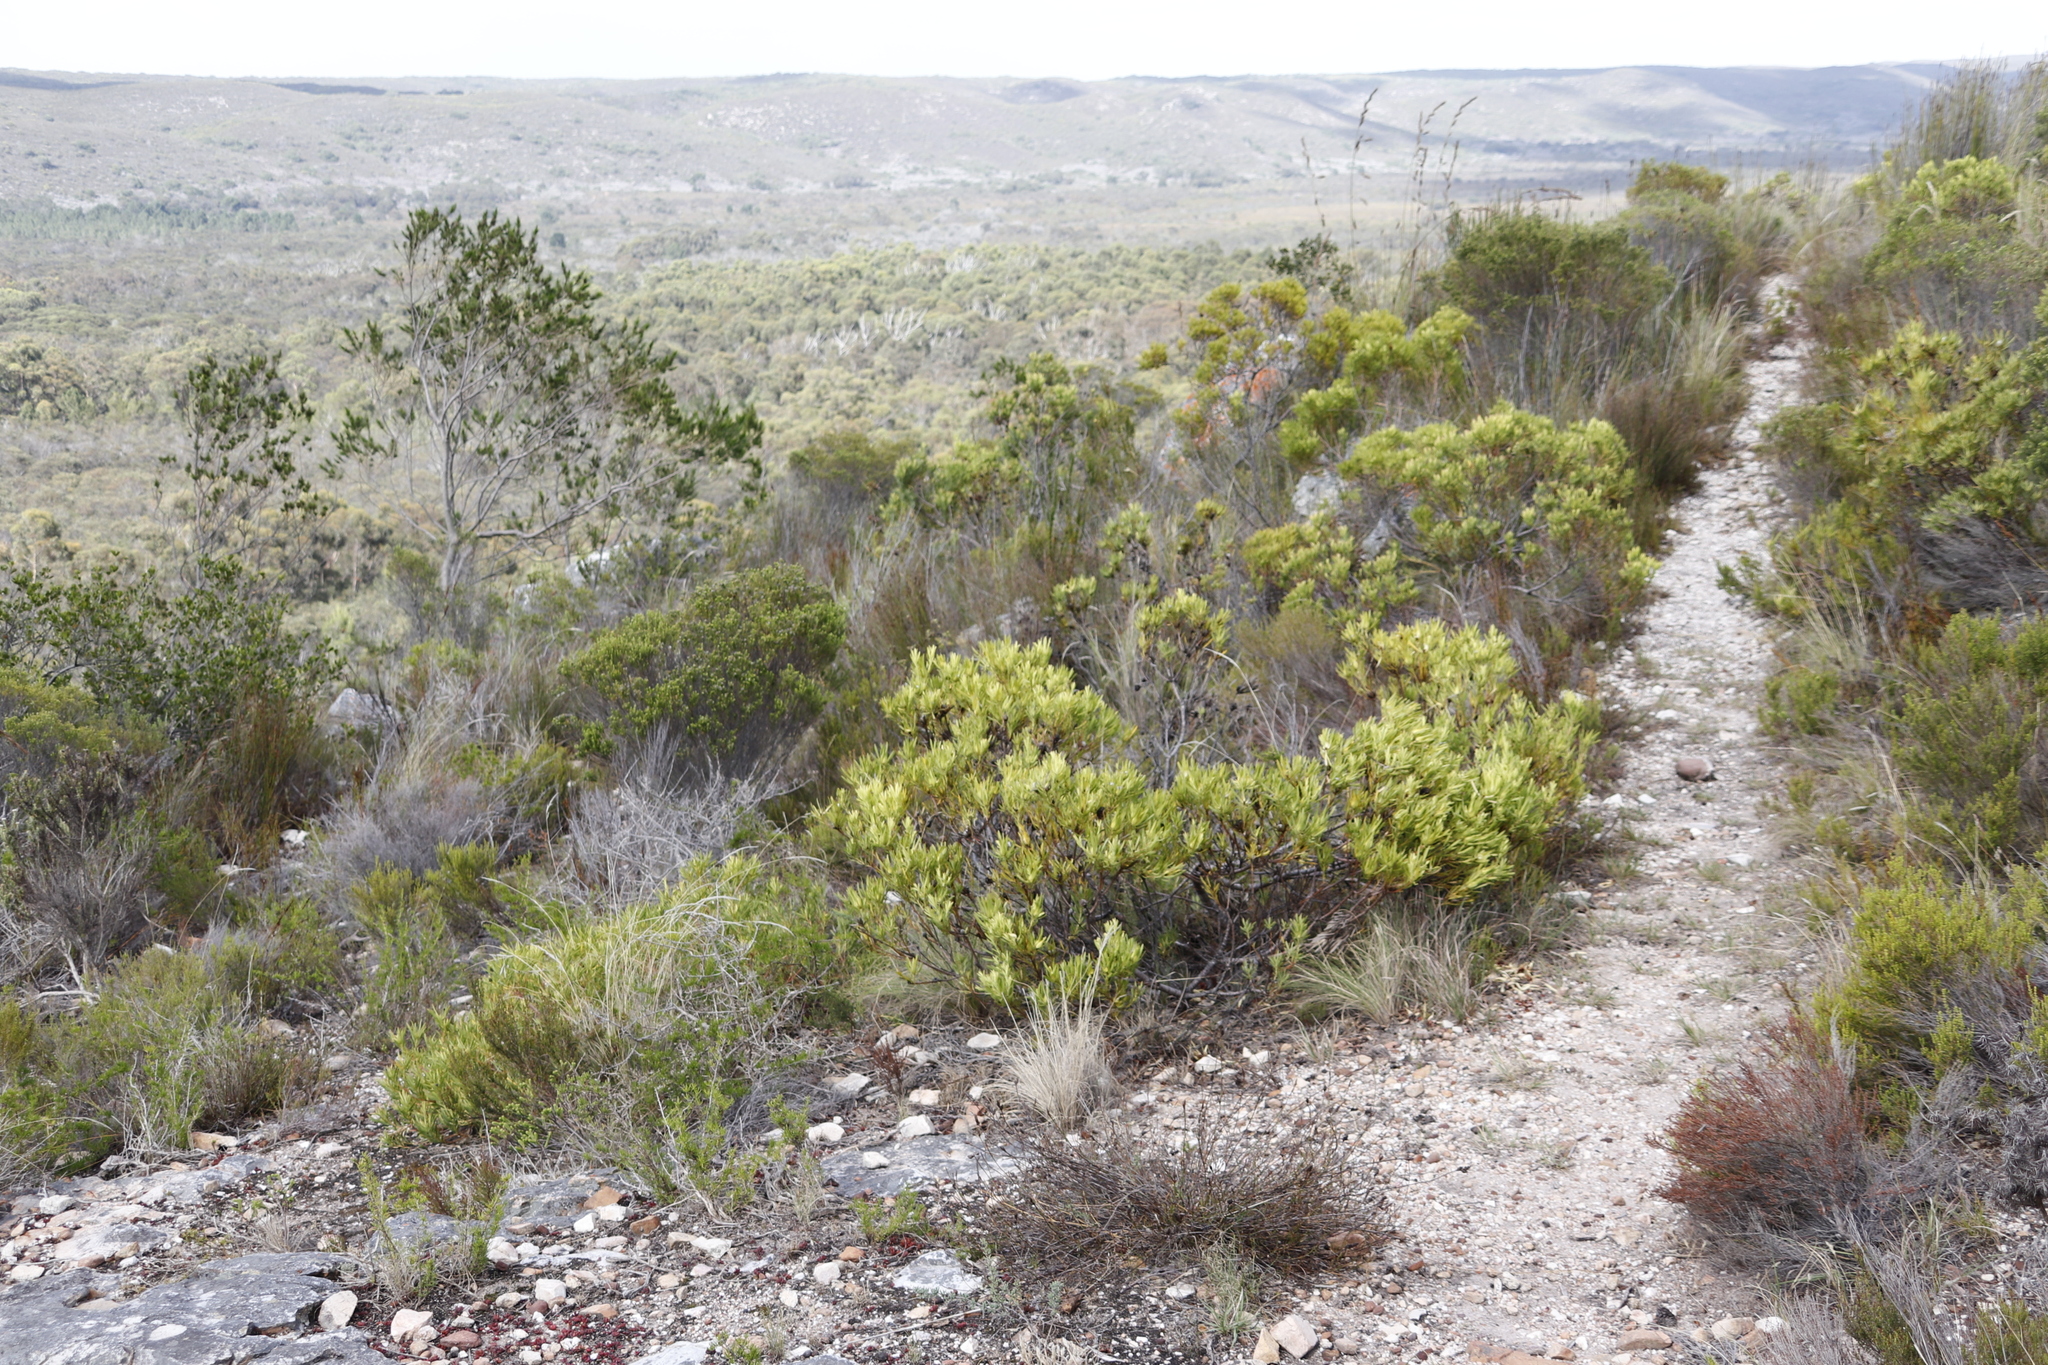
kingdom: Plantae
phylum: Tracheophyta
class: Magnoliopsida
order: Proteales
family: Proteaceae
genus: Leucadendron
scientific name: Leucadendron salignum
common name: Common sunshine conebush
